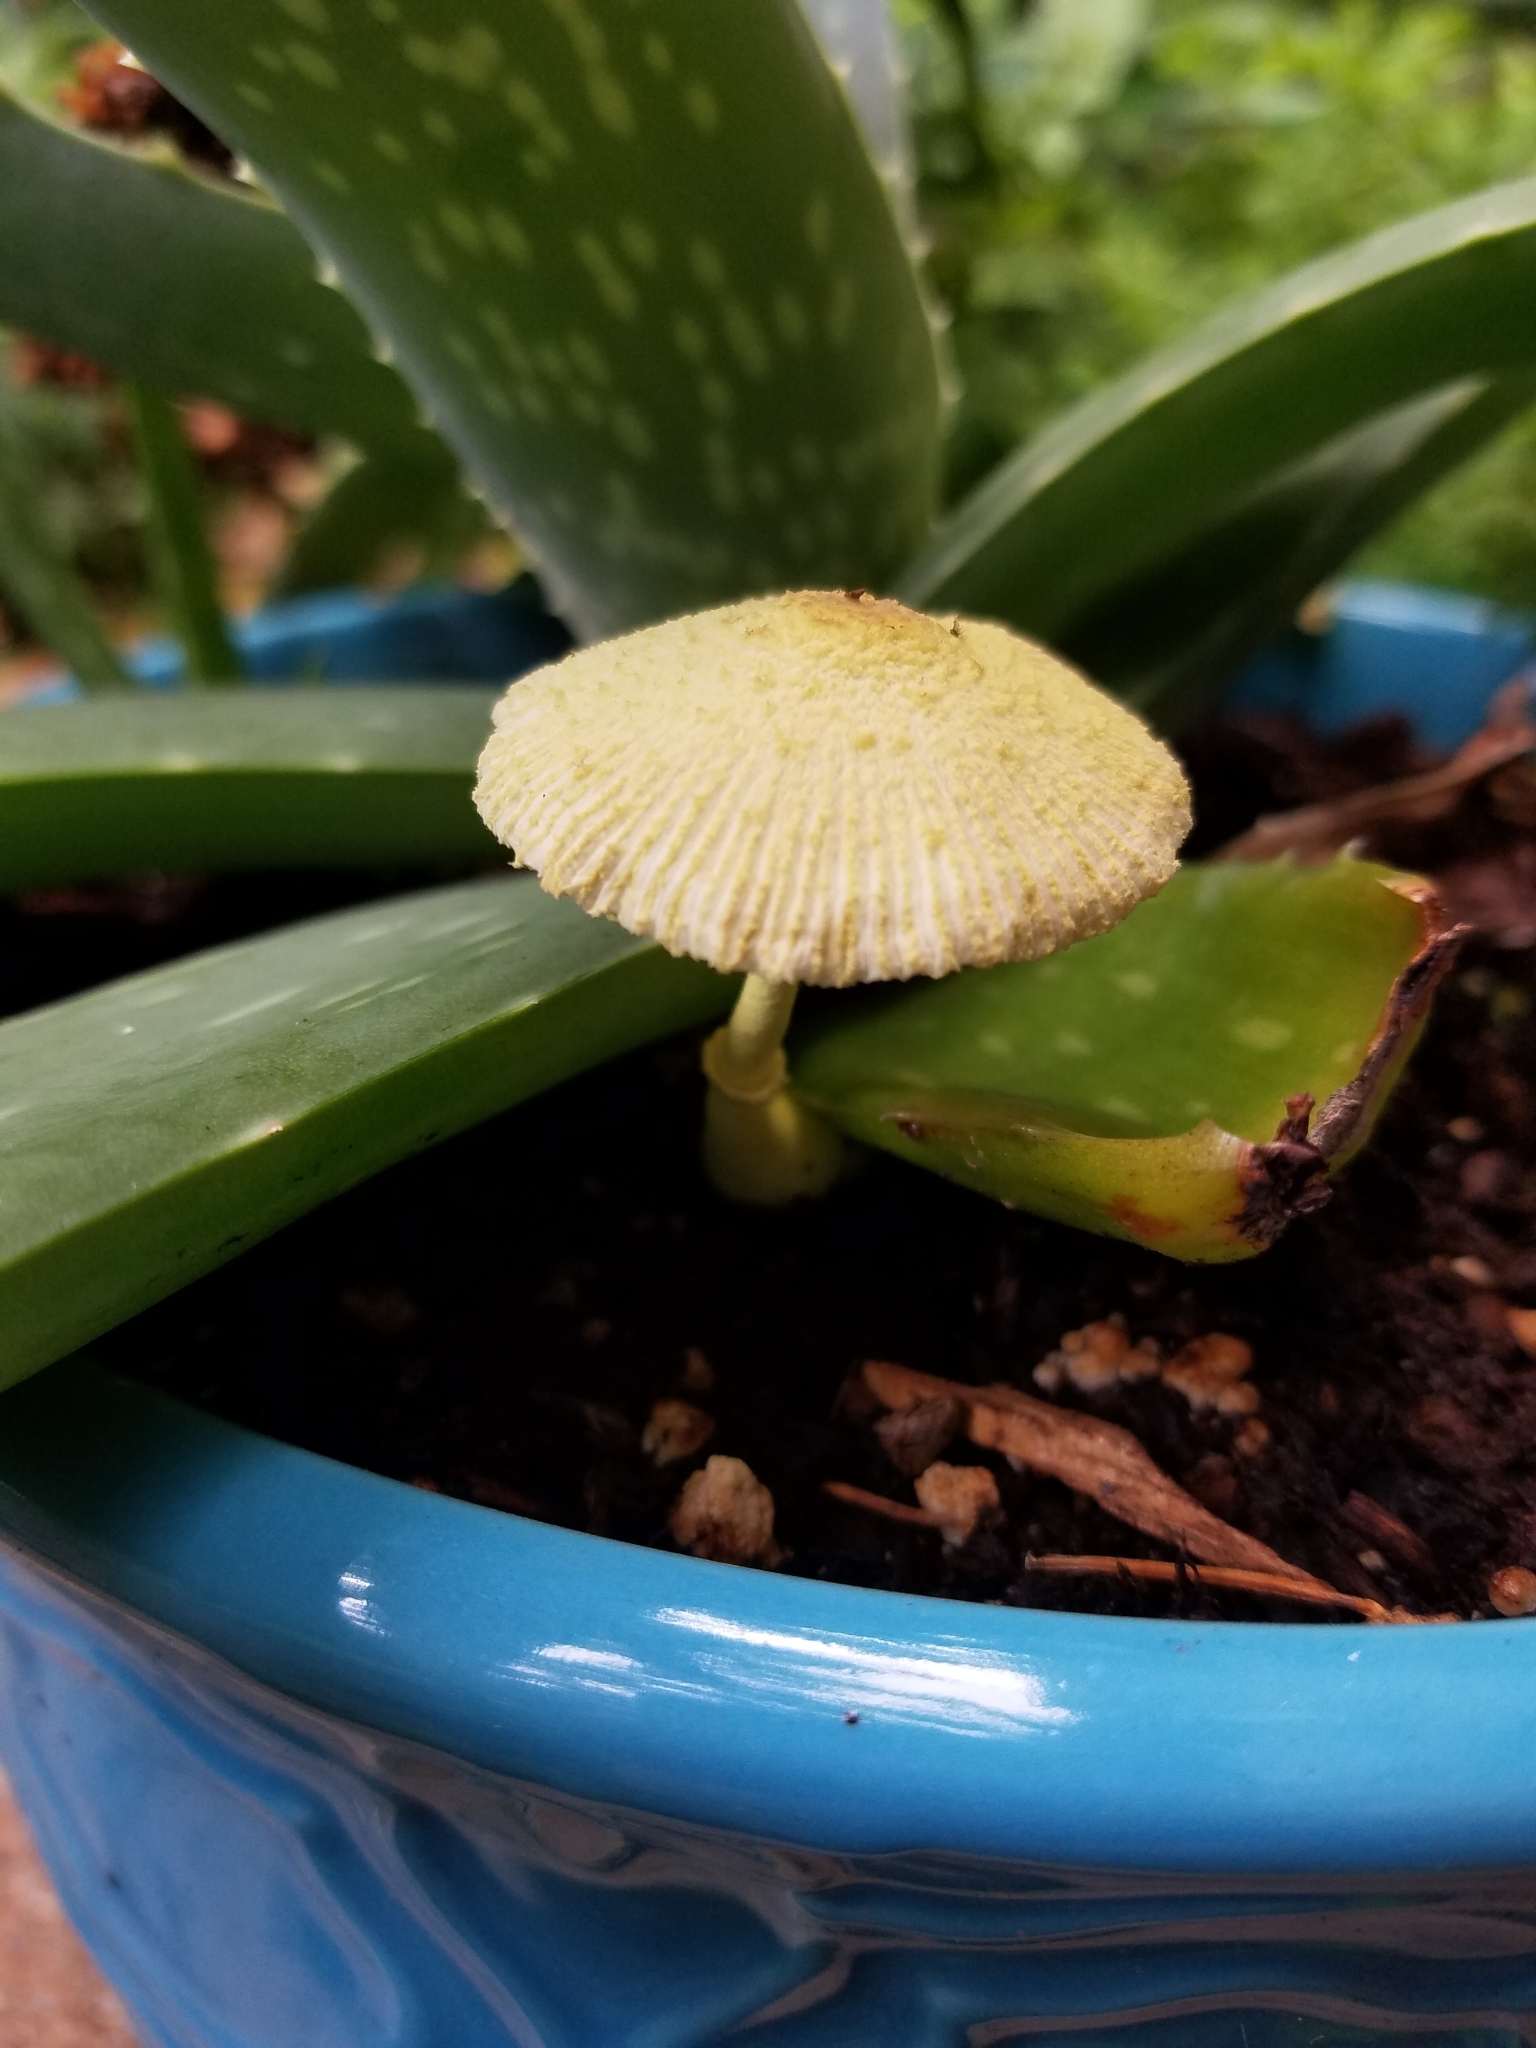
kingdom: Fungi
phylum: Basidiomycota
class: Agaricomycetes
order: Agaricales
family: Agaricaceae
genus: Leucocoprinus
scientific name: Leucocoprinus birnbaumii
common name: Plantpot dapperling
